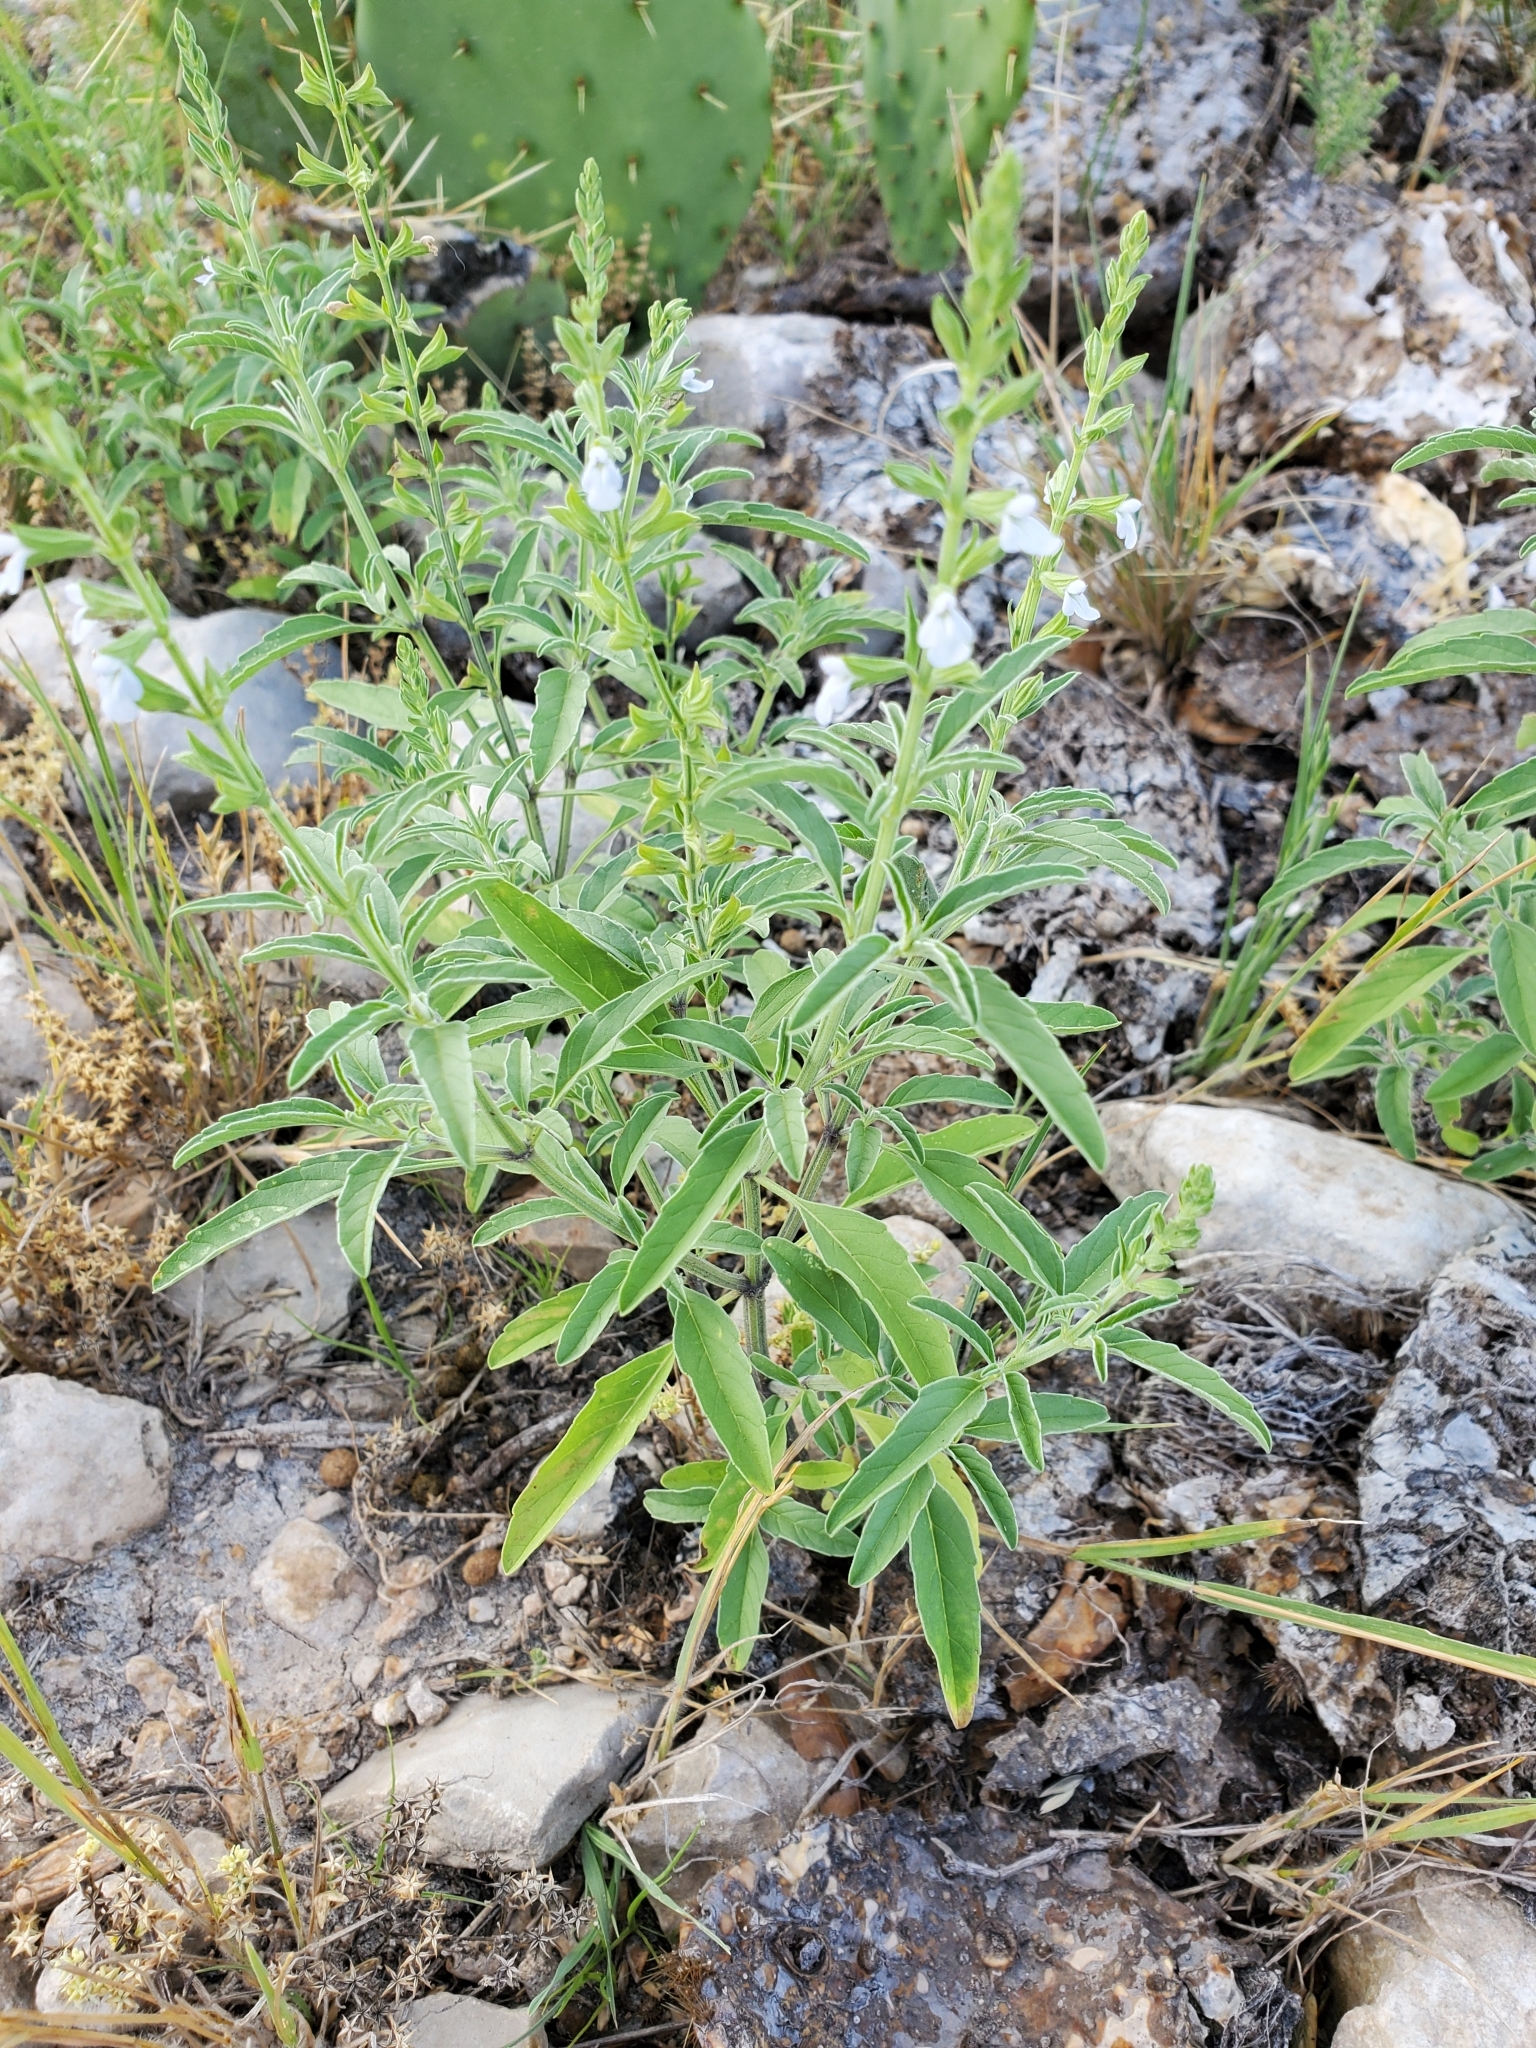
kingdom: Plantae
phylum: Tracheophyta
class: Magnoliopsida
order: Lamiales
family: Lamiaceae
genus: Salvia
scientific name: Salvia reflexa
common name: Mintweed
